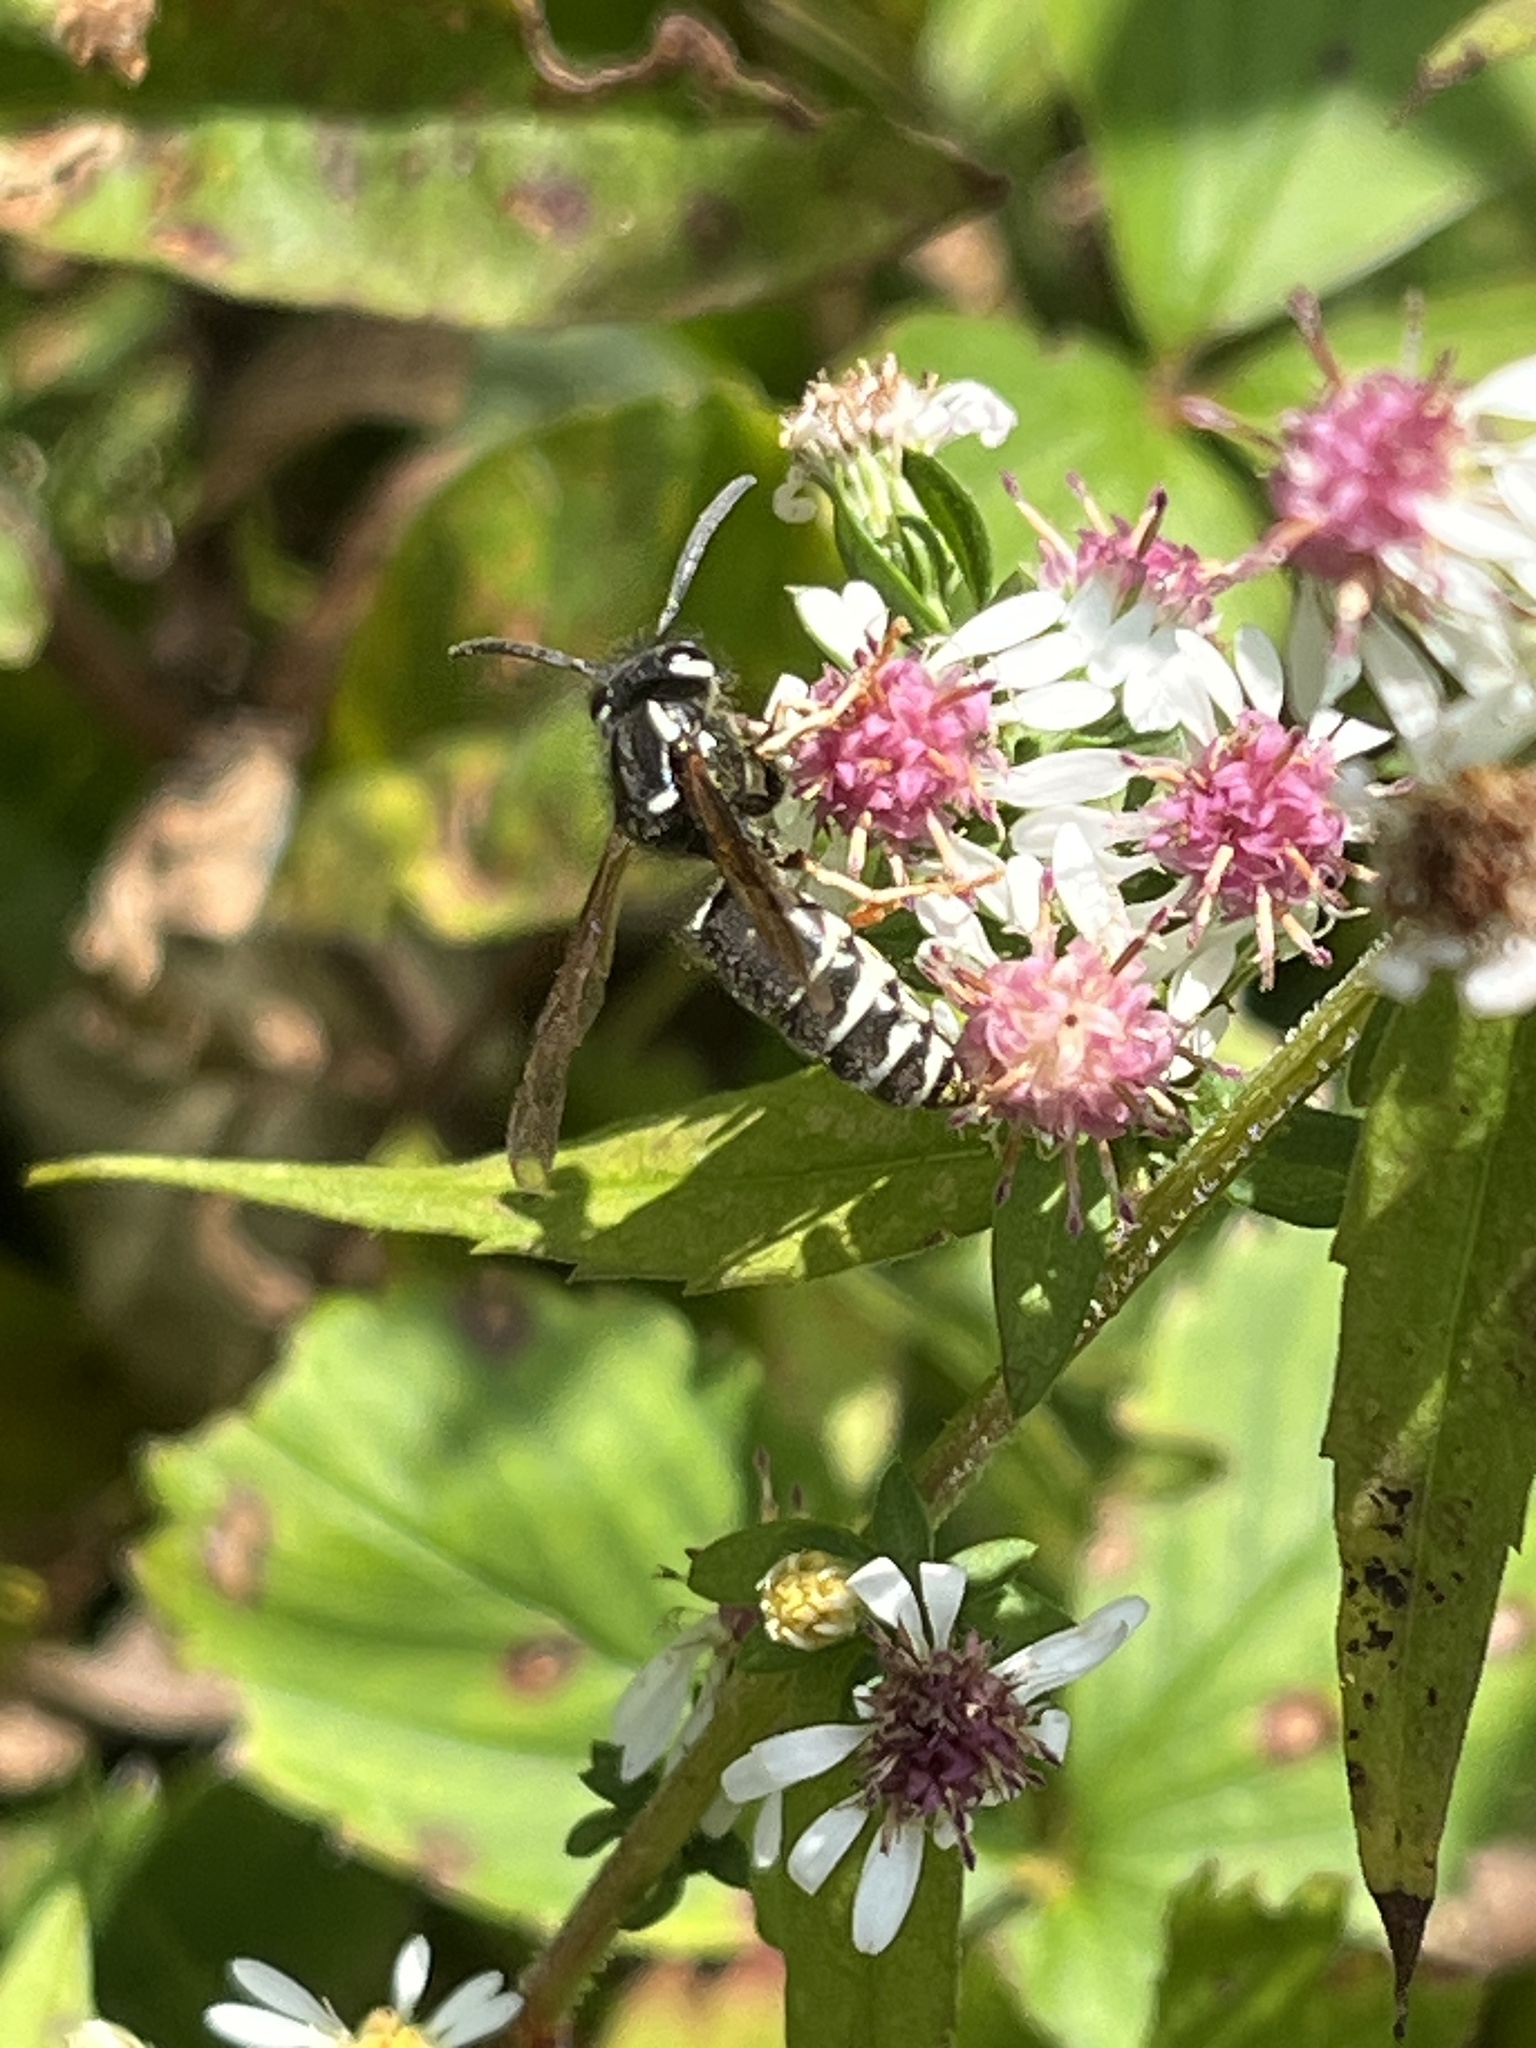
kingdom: Animalia
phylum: Arthropoda
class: Insecta
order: Hymenoptera
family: Vespidae
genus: Vespula
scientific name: Vespula consobrina
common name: Blackjacket
